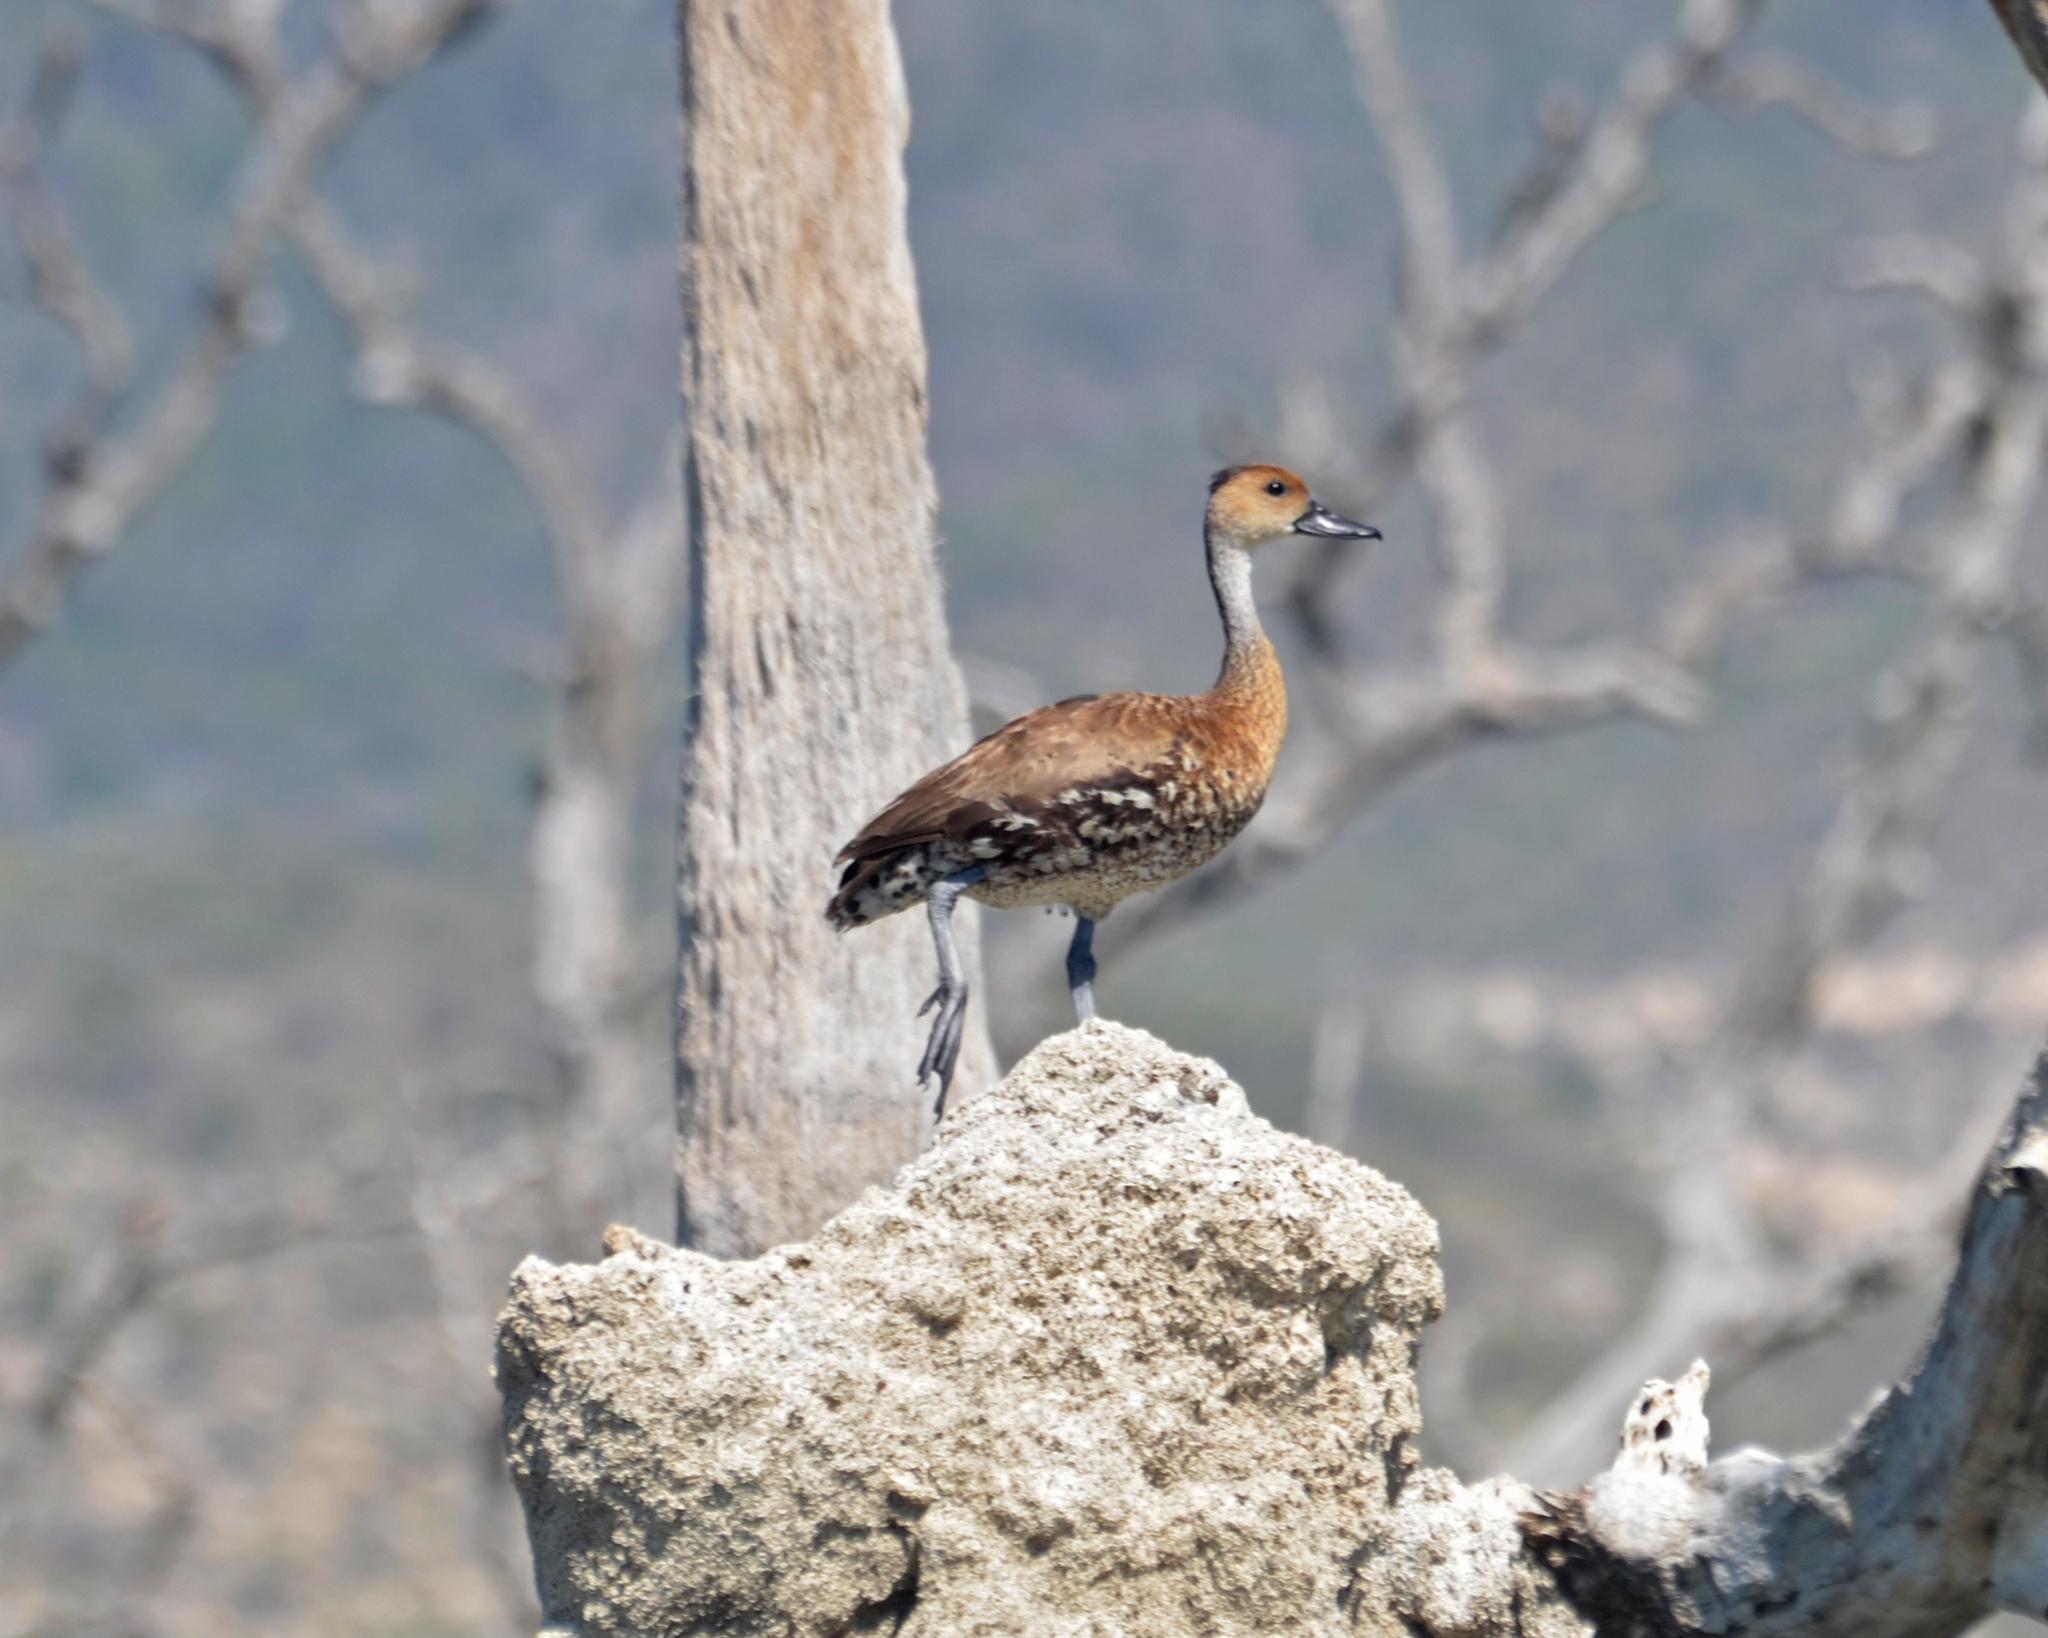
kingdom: Animalia
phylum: Chordata
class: Aves
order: Anseriformes
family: Anatidae
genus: Dendrocygna
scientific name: Dendrocygna arborea
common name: West indian whistling duck
